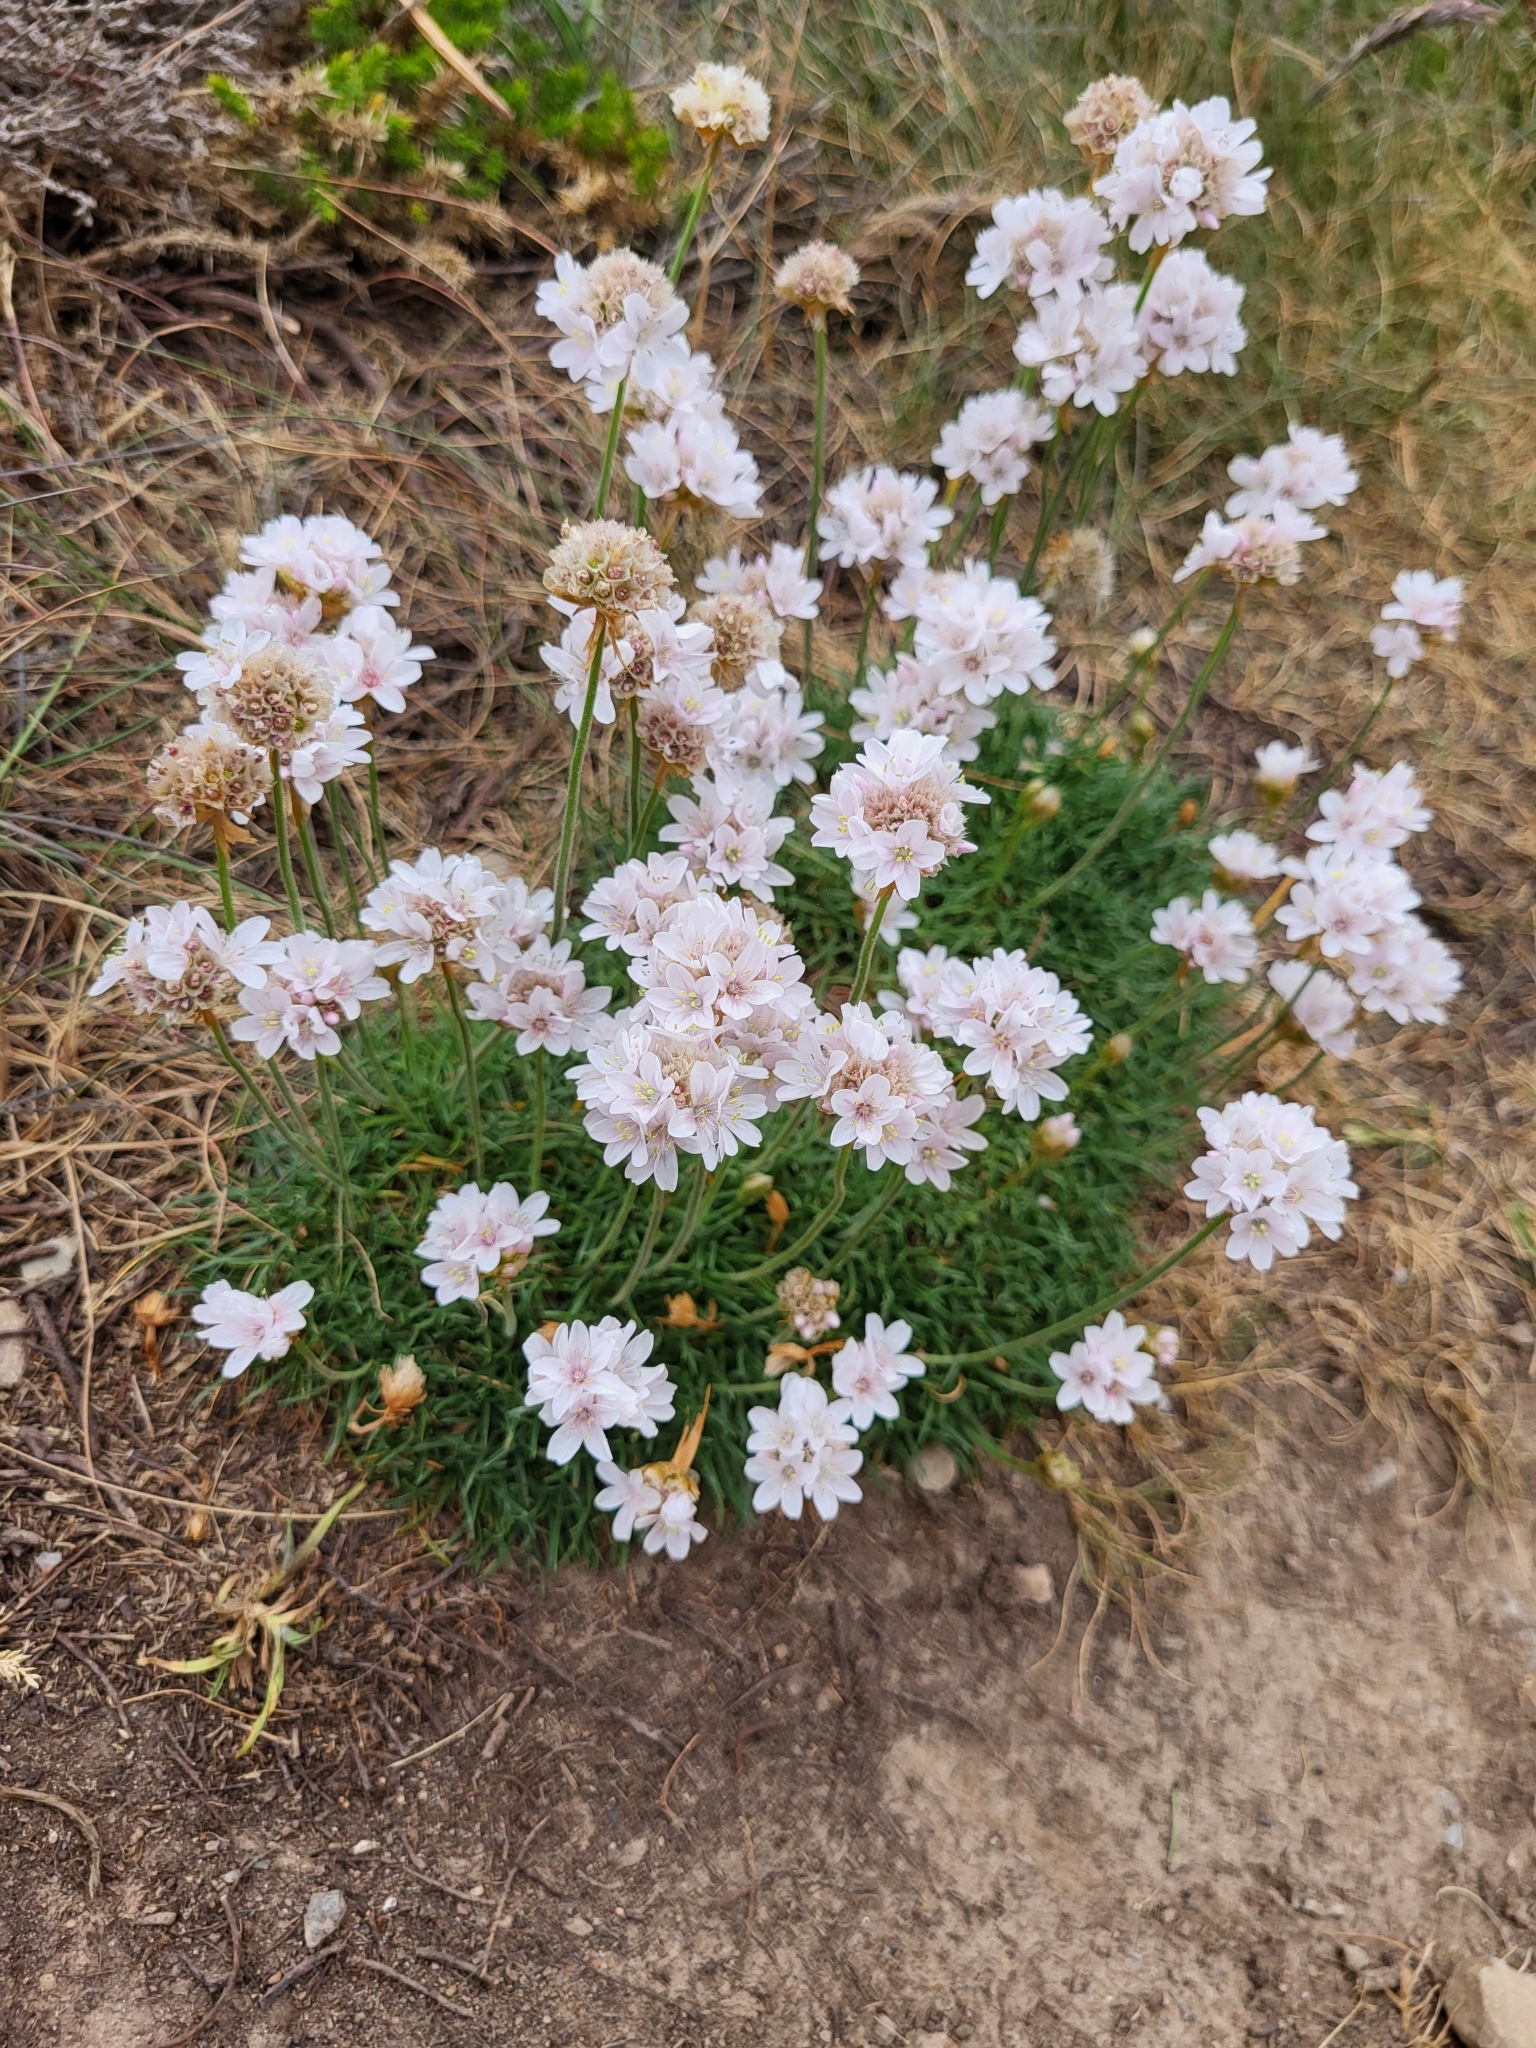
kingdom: Plantae
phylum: Tracheophyta
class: Magnoliopsida
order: Caryophyllales
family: Plumbaginaceae
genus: Armeria
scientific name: Armeria maritima
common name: Thrift
